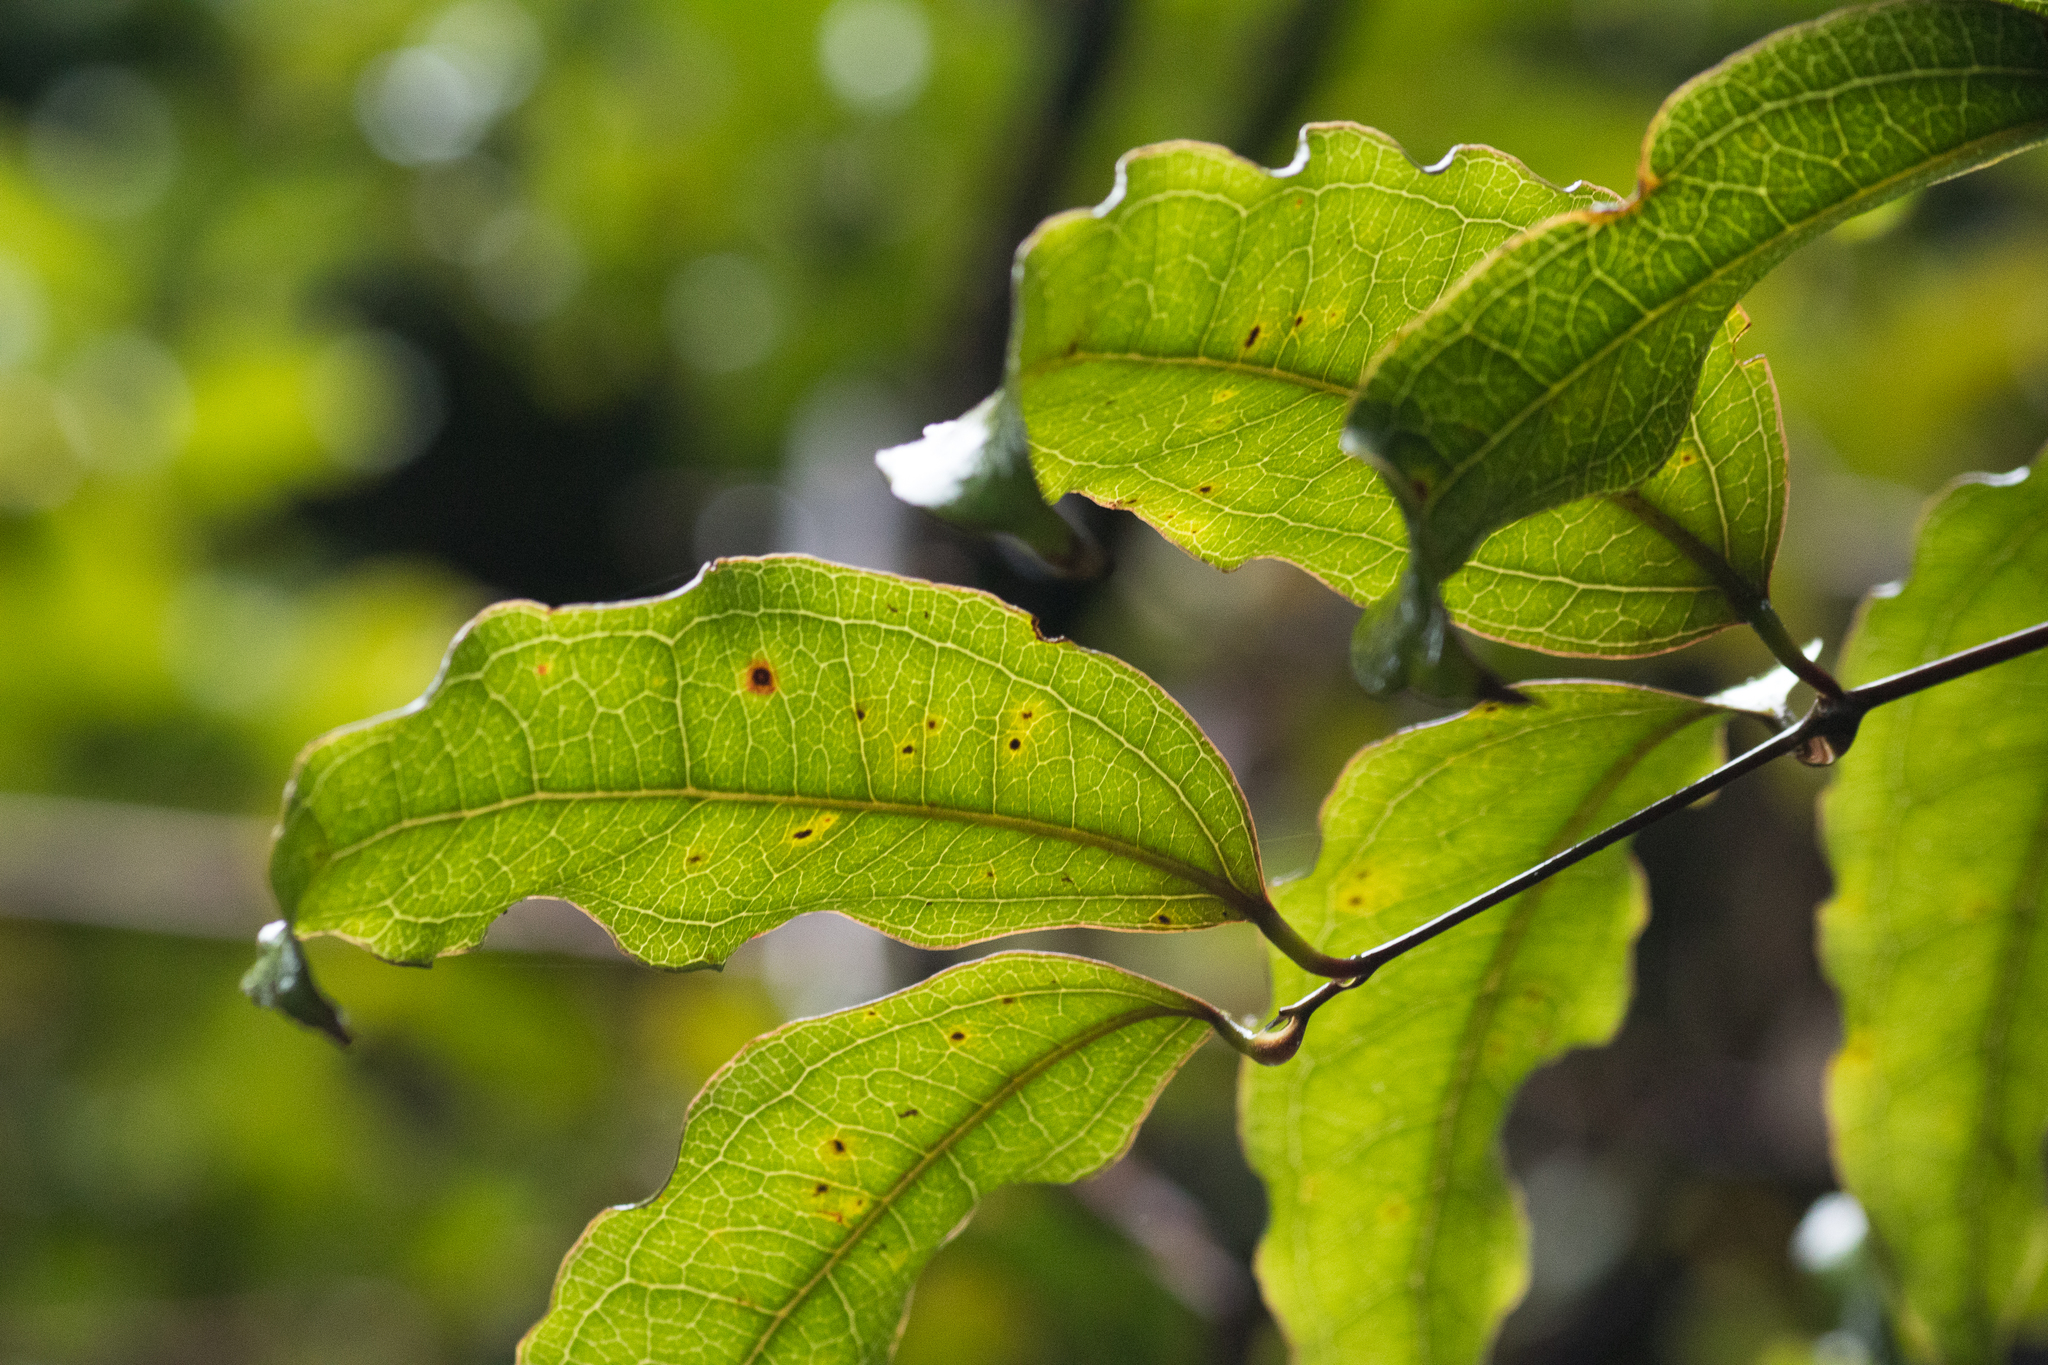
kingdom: Plantae
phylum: Tracheophyta
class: Liliopsida
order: Liliales
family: Ripogonaceae
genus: Ripogonum
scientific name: Ripogonum scandens
